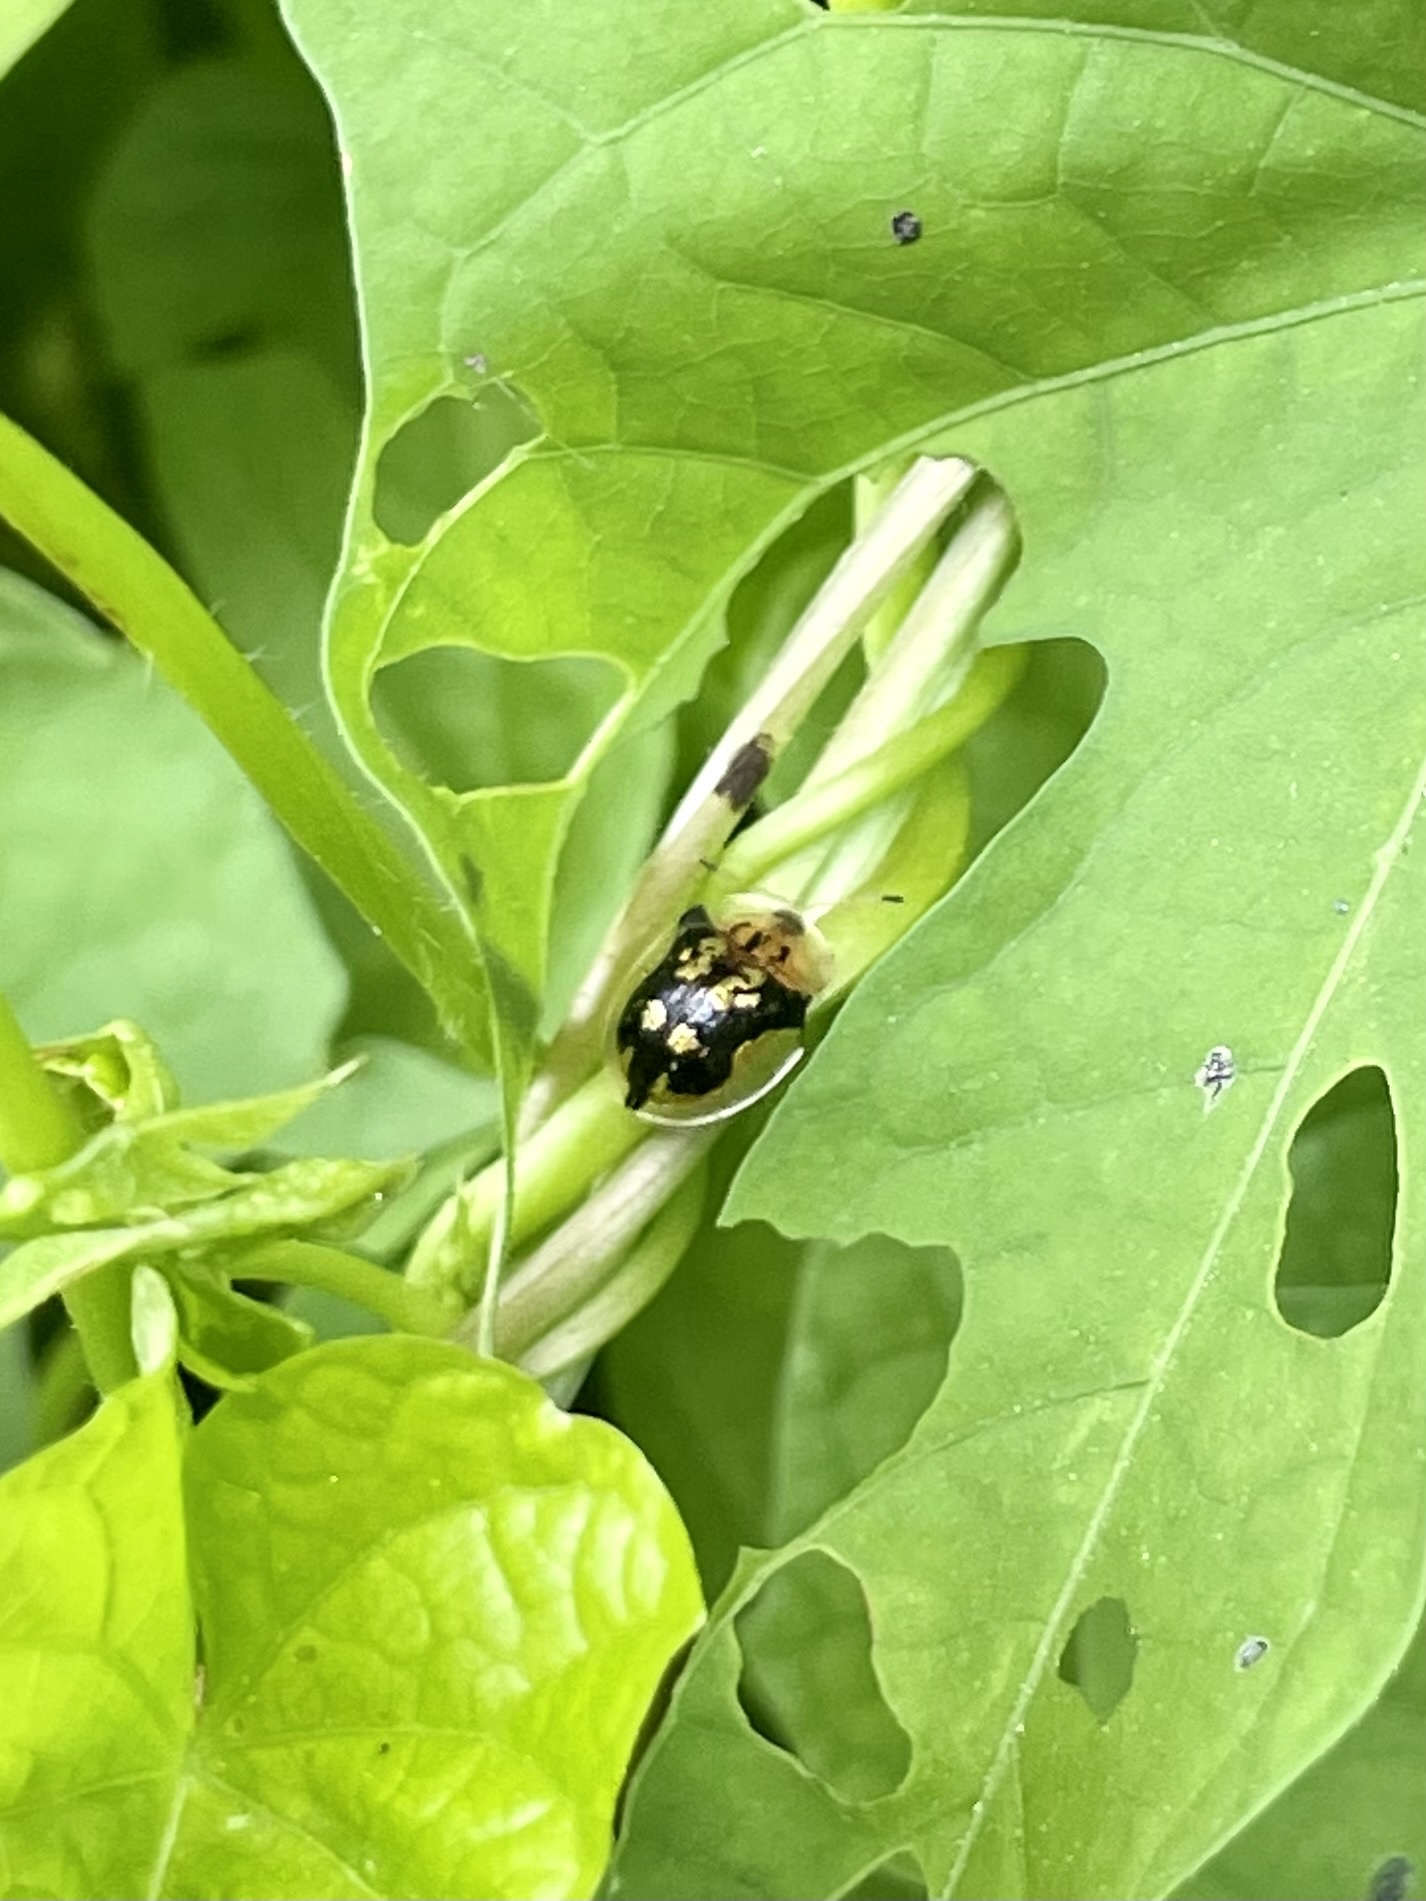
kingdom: Animalia
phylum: Arthropoda
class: Insecta
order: Coleoptera
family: Chrysomelidae
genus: Deloyala
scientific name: Deloyala guttata
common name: Mottled tortoise beetle
